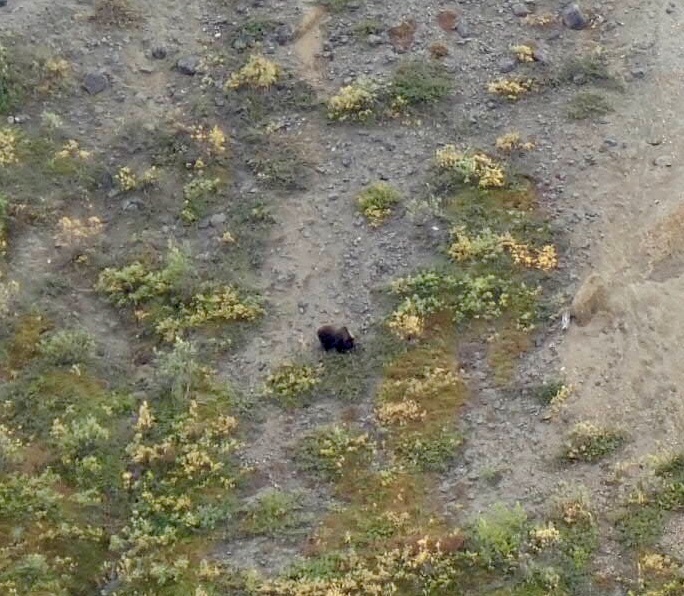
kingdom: Animalia
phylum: Chordata
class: Mammalia
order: Carnivora
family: Ursidae
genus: Ursus
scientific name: Ursus arctos
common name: Brown bear
